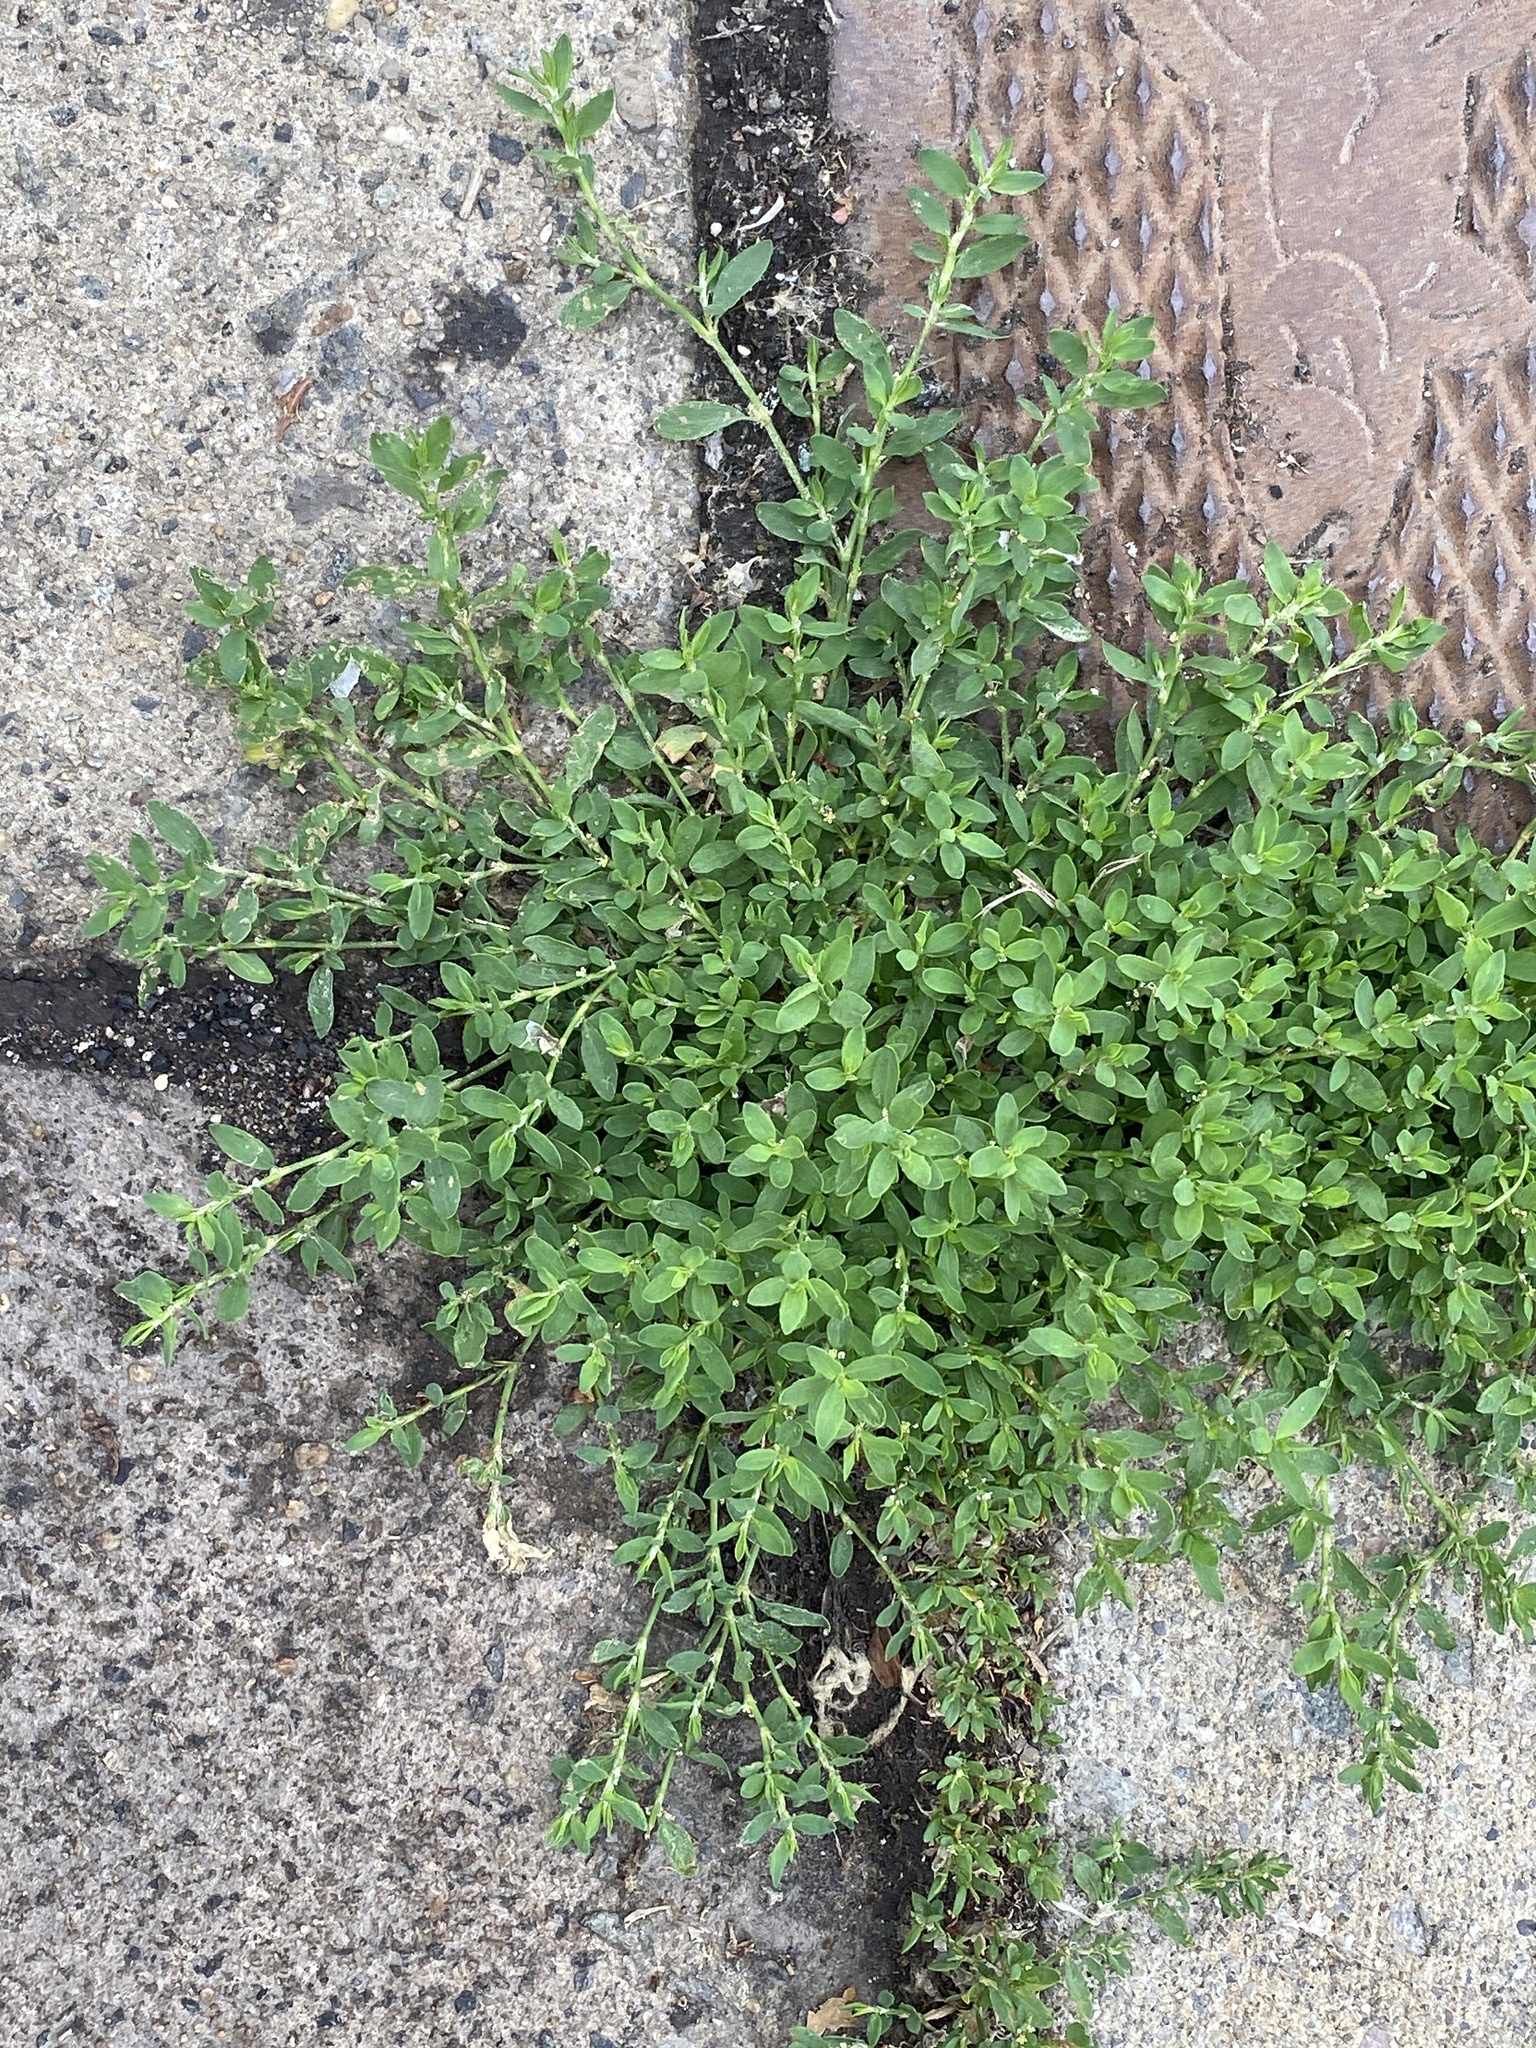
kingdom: Plantae
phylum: Tracheophyta
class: Magnoliopsida
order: Caryophyllales
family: Polygonaceae
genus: Polygonum
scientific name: Polygonum aviculare
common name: Prostrate knotweed
